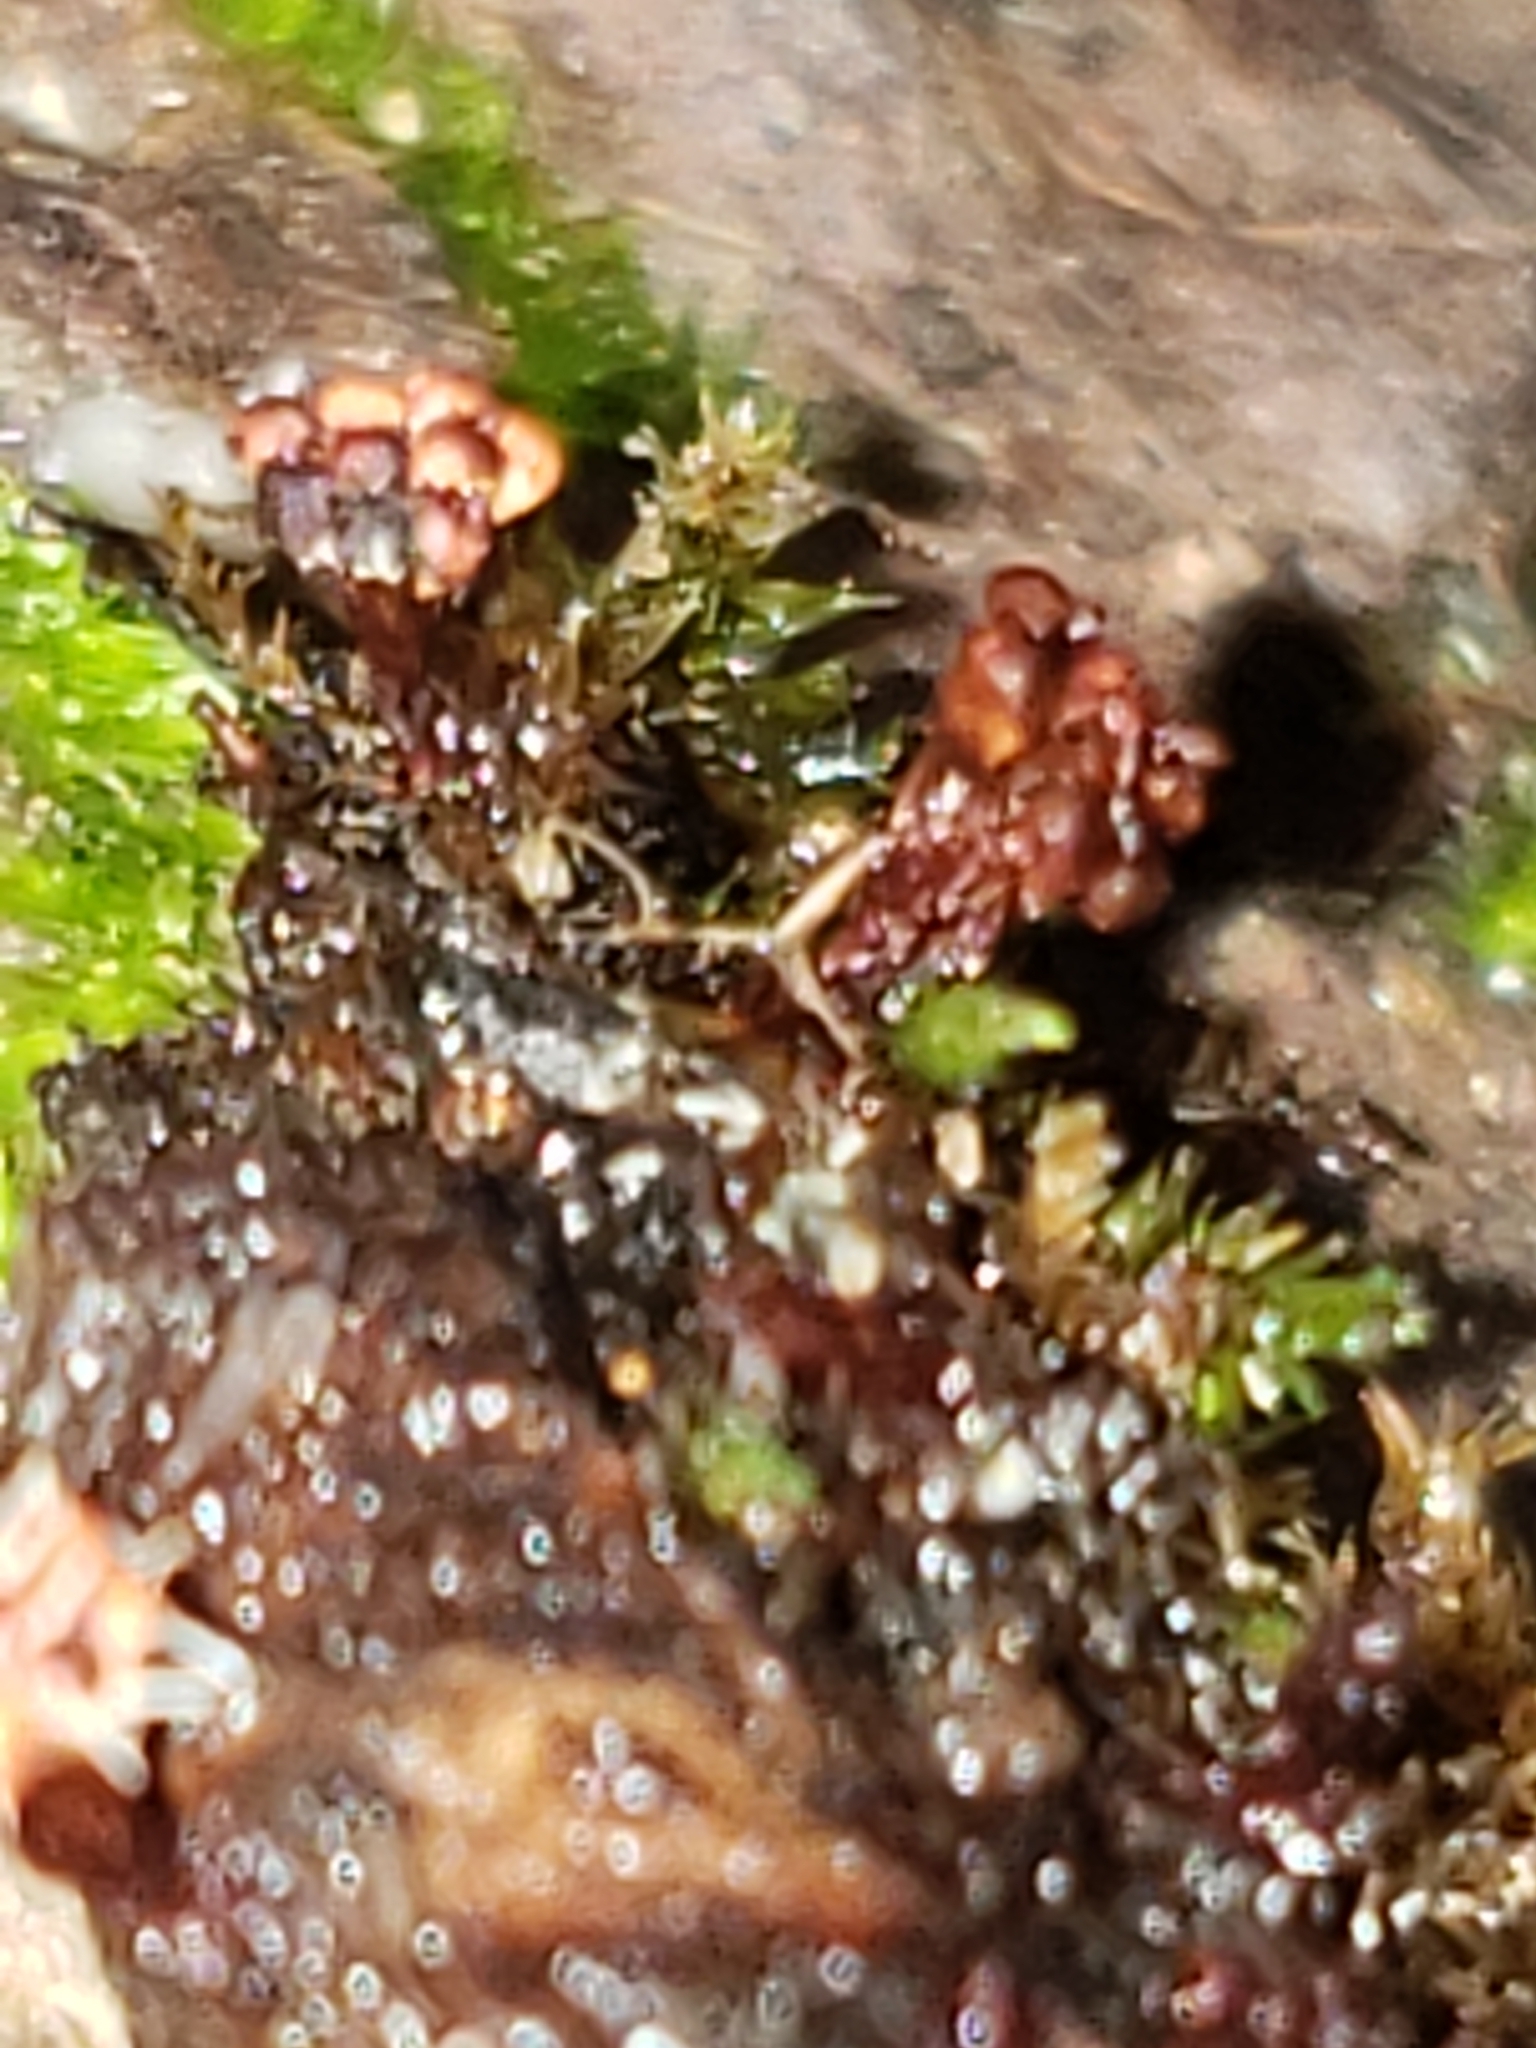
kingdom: Protozoa
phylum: Mycetozoa
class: Myxomycetes
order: Trichiales
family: Trichiaceae
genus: Metatrichia
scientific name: Metatrichia vesparia
